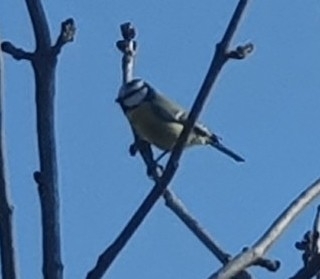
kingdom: Animalia
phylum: Chordata
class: Aves
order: Passeriformes
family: Paridae
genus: Cyanistes
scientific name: Cyanistes caeruleus
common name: Eurasian blue tit
